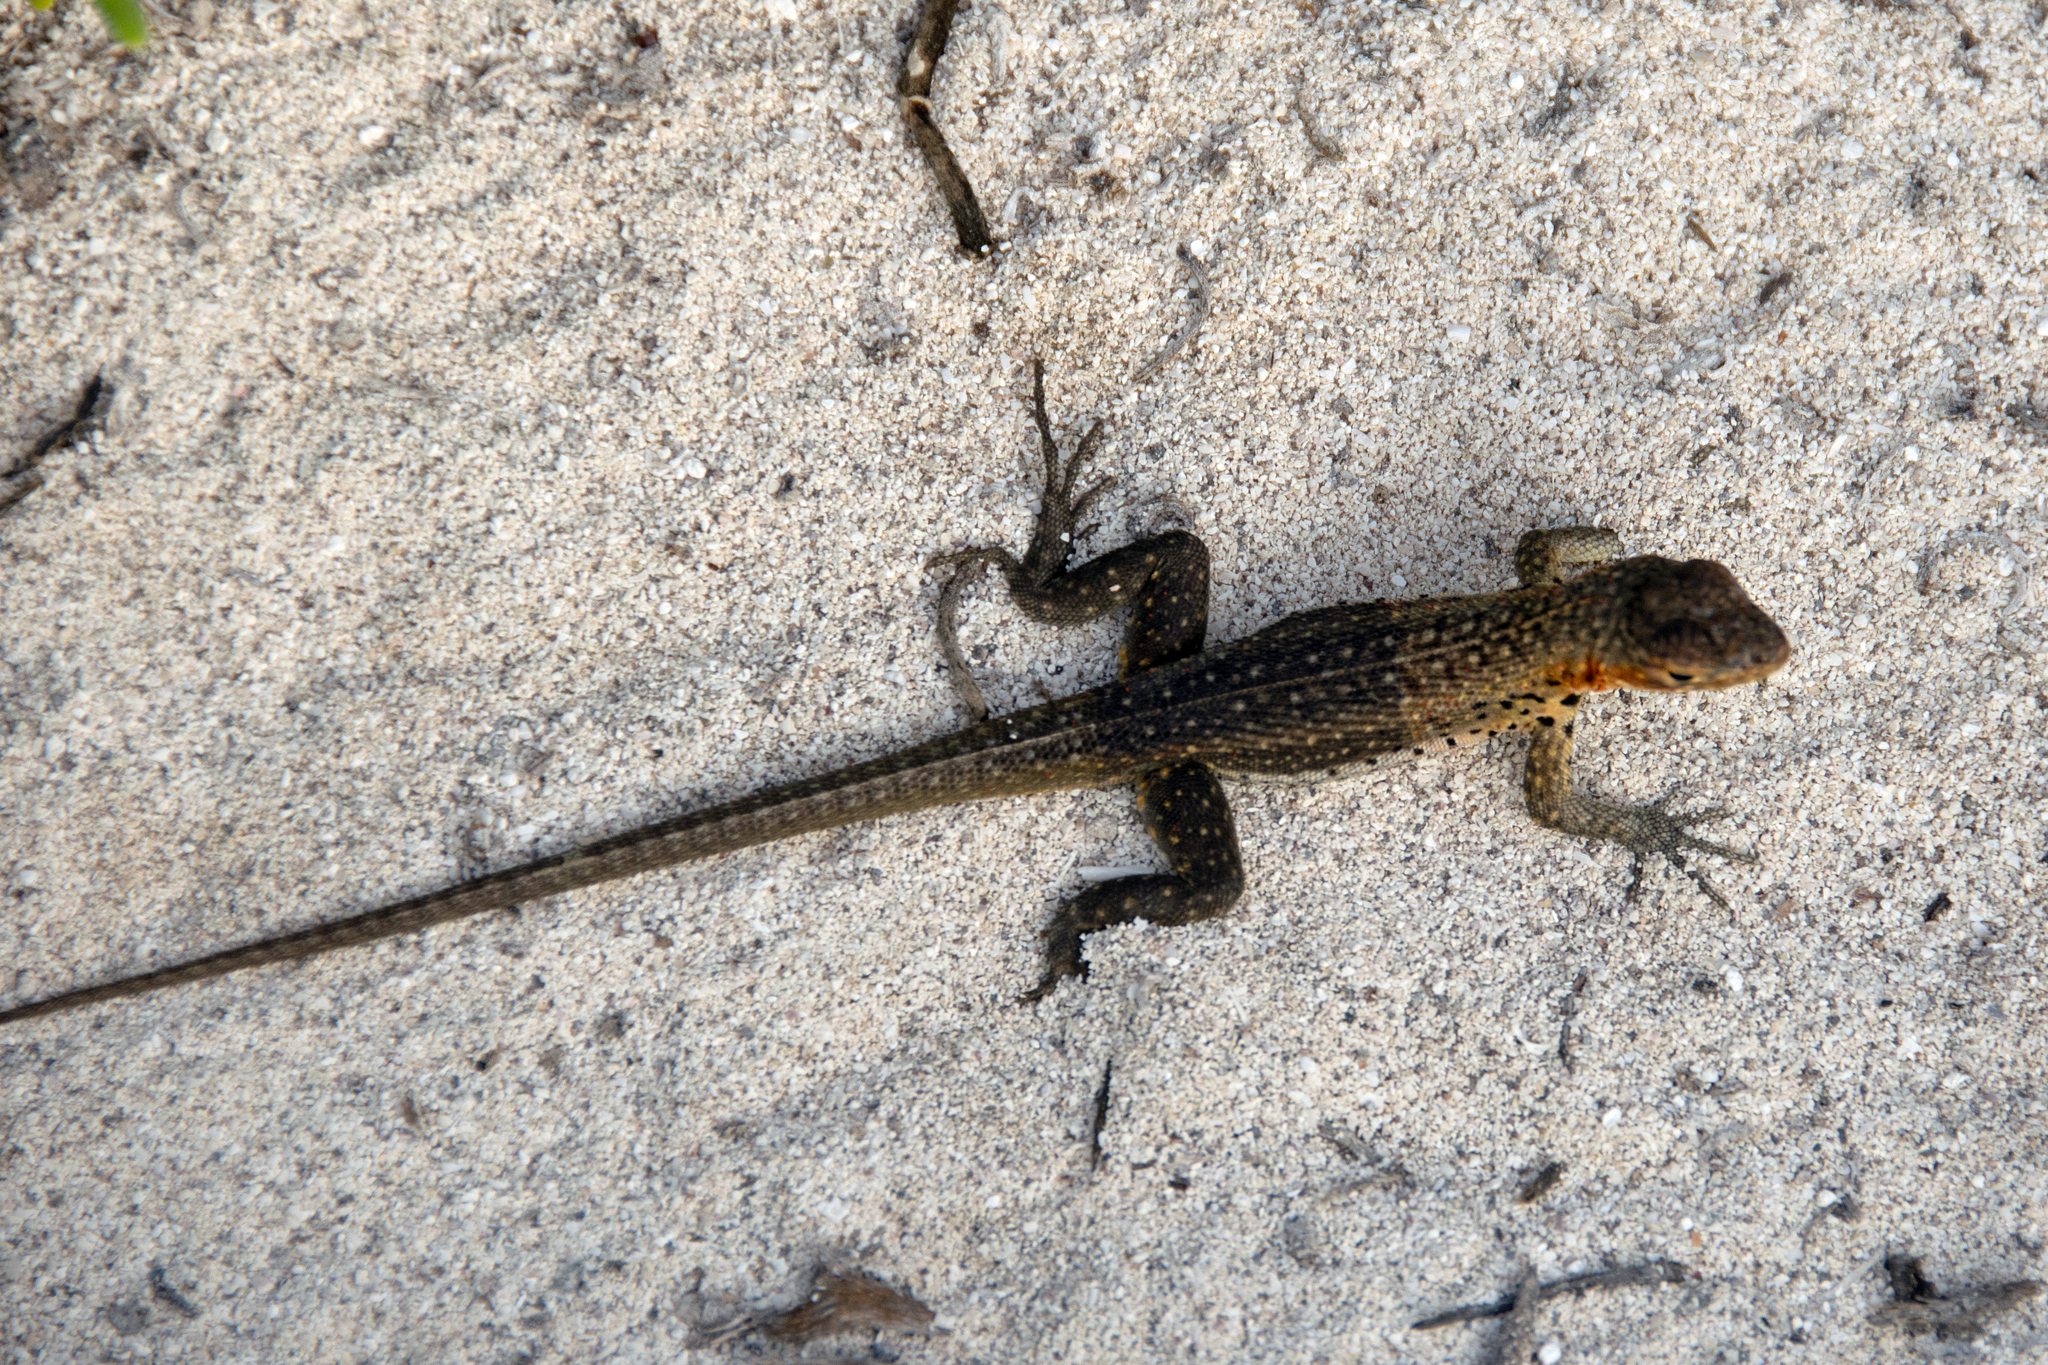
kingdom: Animalia
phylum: Chordata
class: Squamata
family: Tropiduridae
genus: Microlophus
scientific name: Microlophus jacobii
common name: Santiago lava lizard
